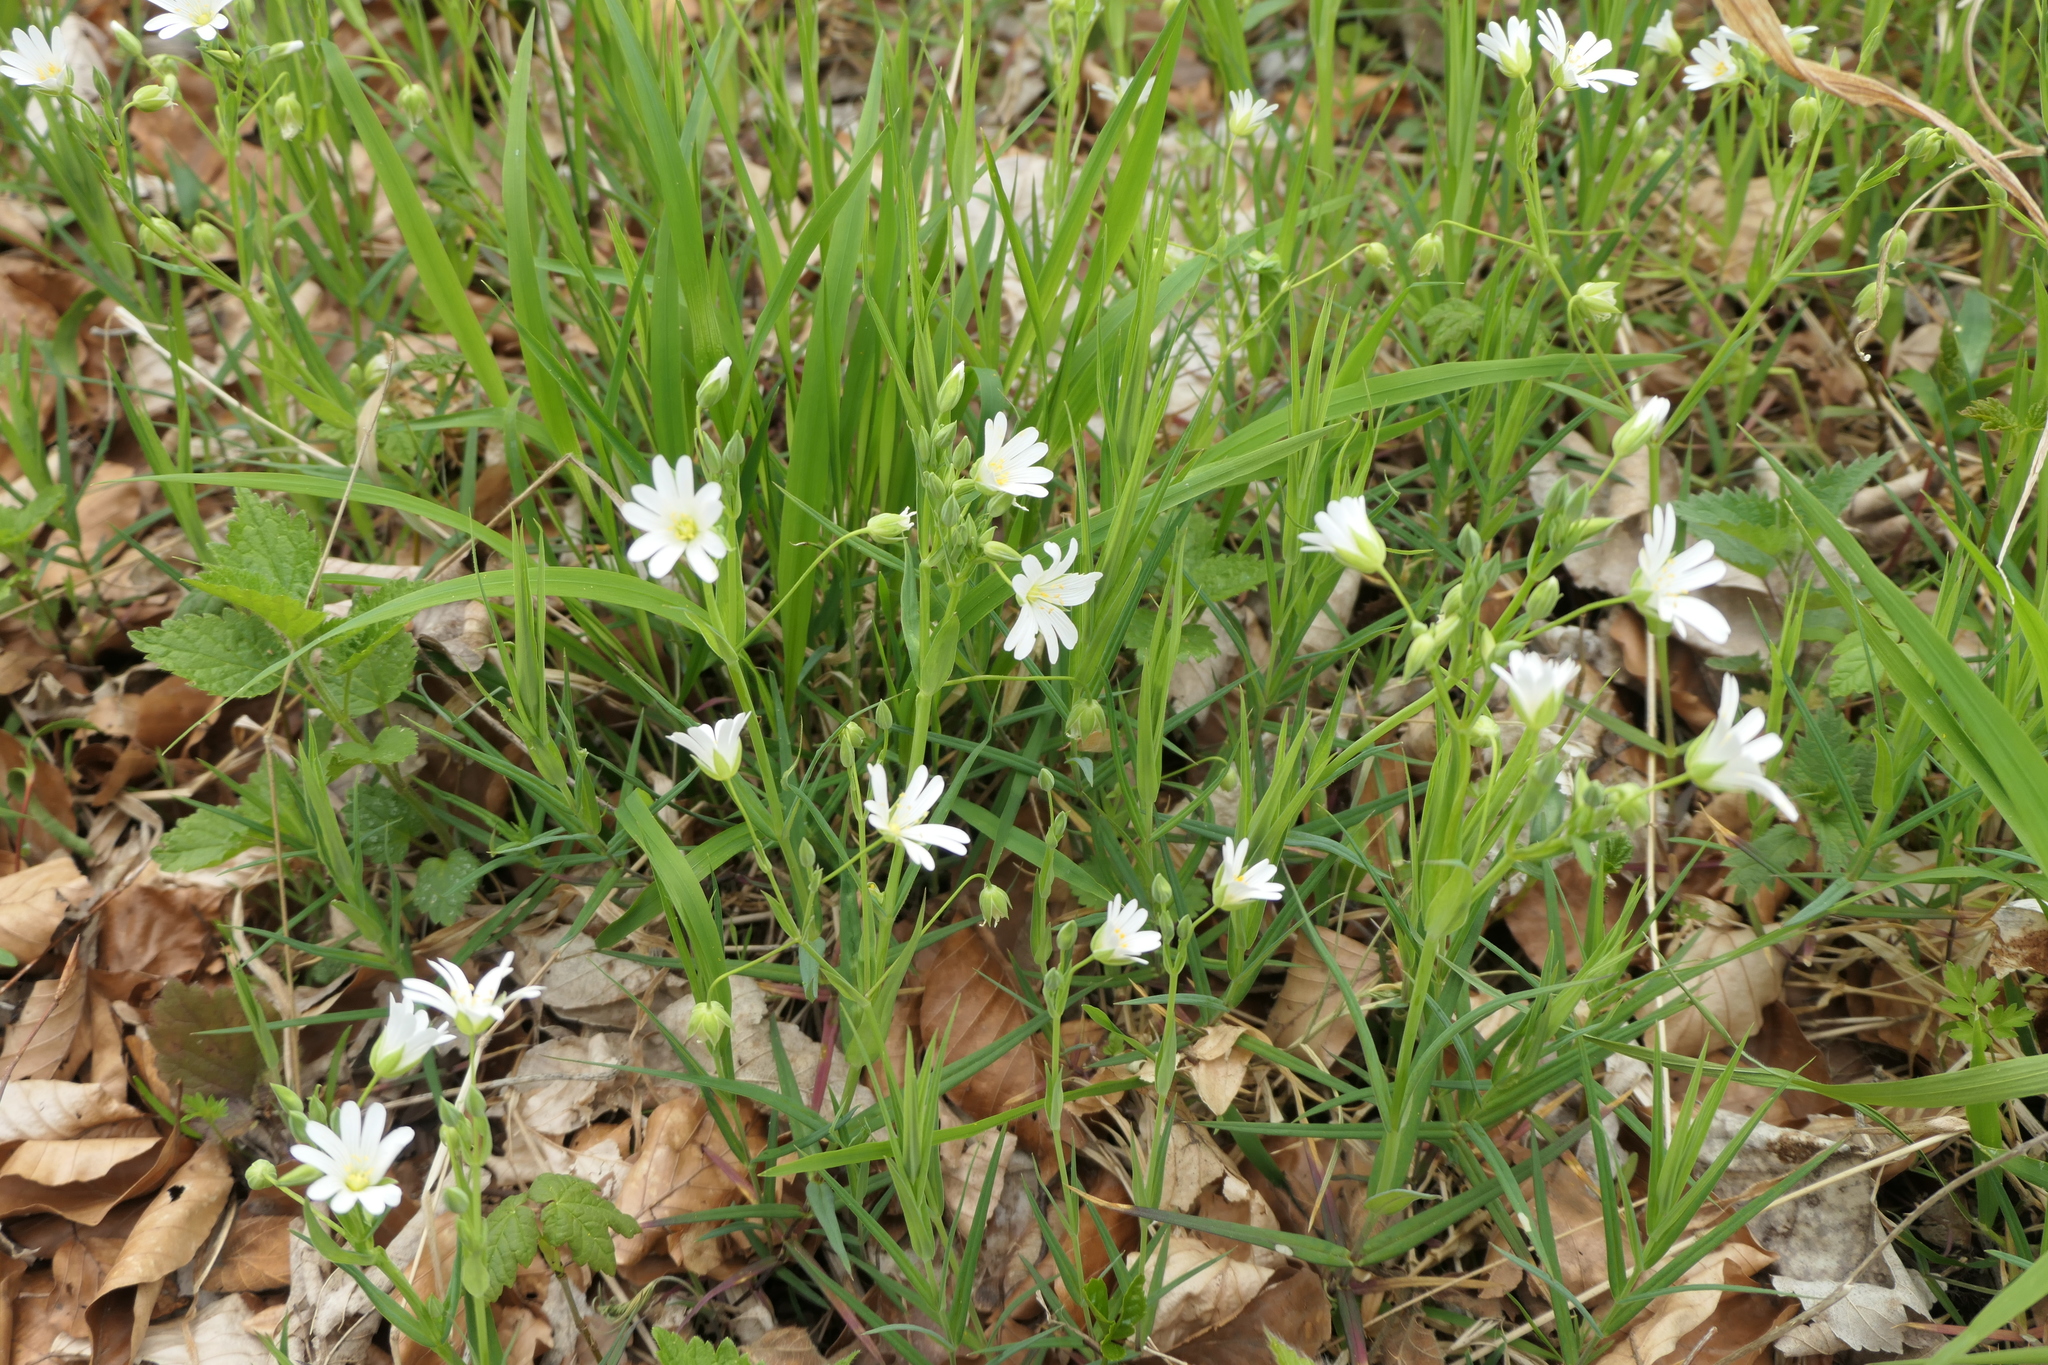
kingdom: Plantae
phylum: Tracheophyta
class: Magnoliopsida
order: Caryophyllales
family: Caryophyllaceae
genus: Rabelera
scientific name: Rabelera holostea
